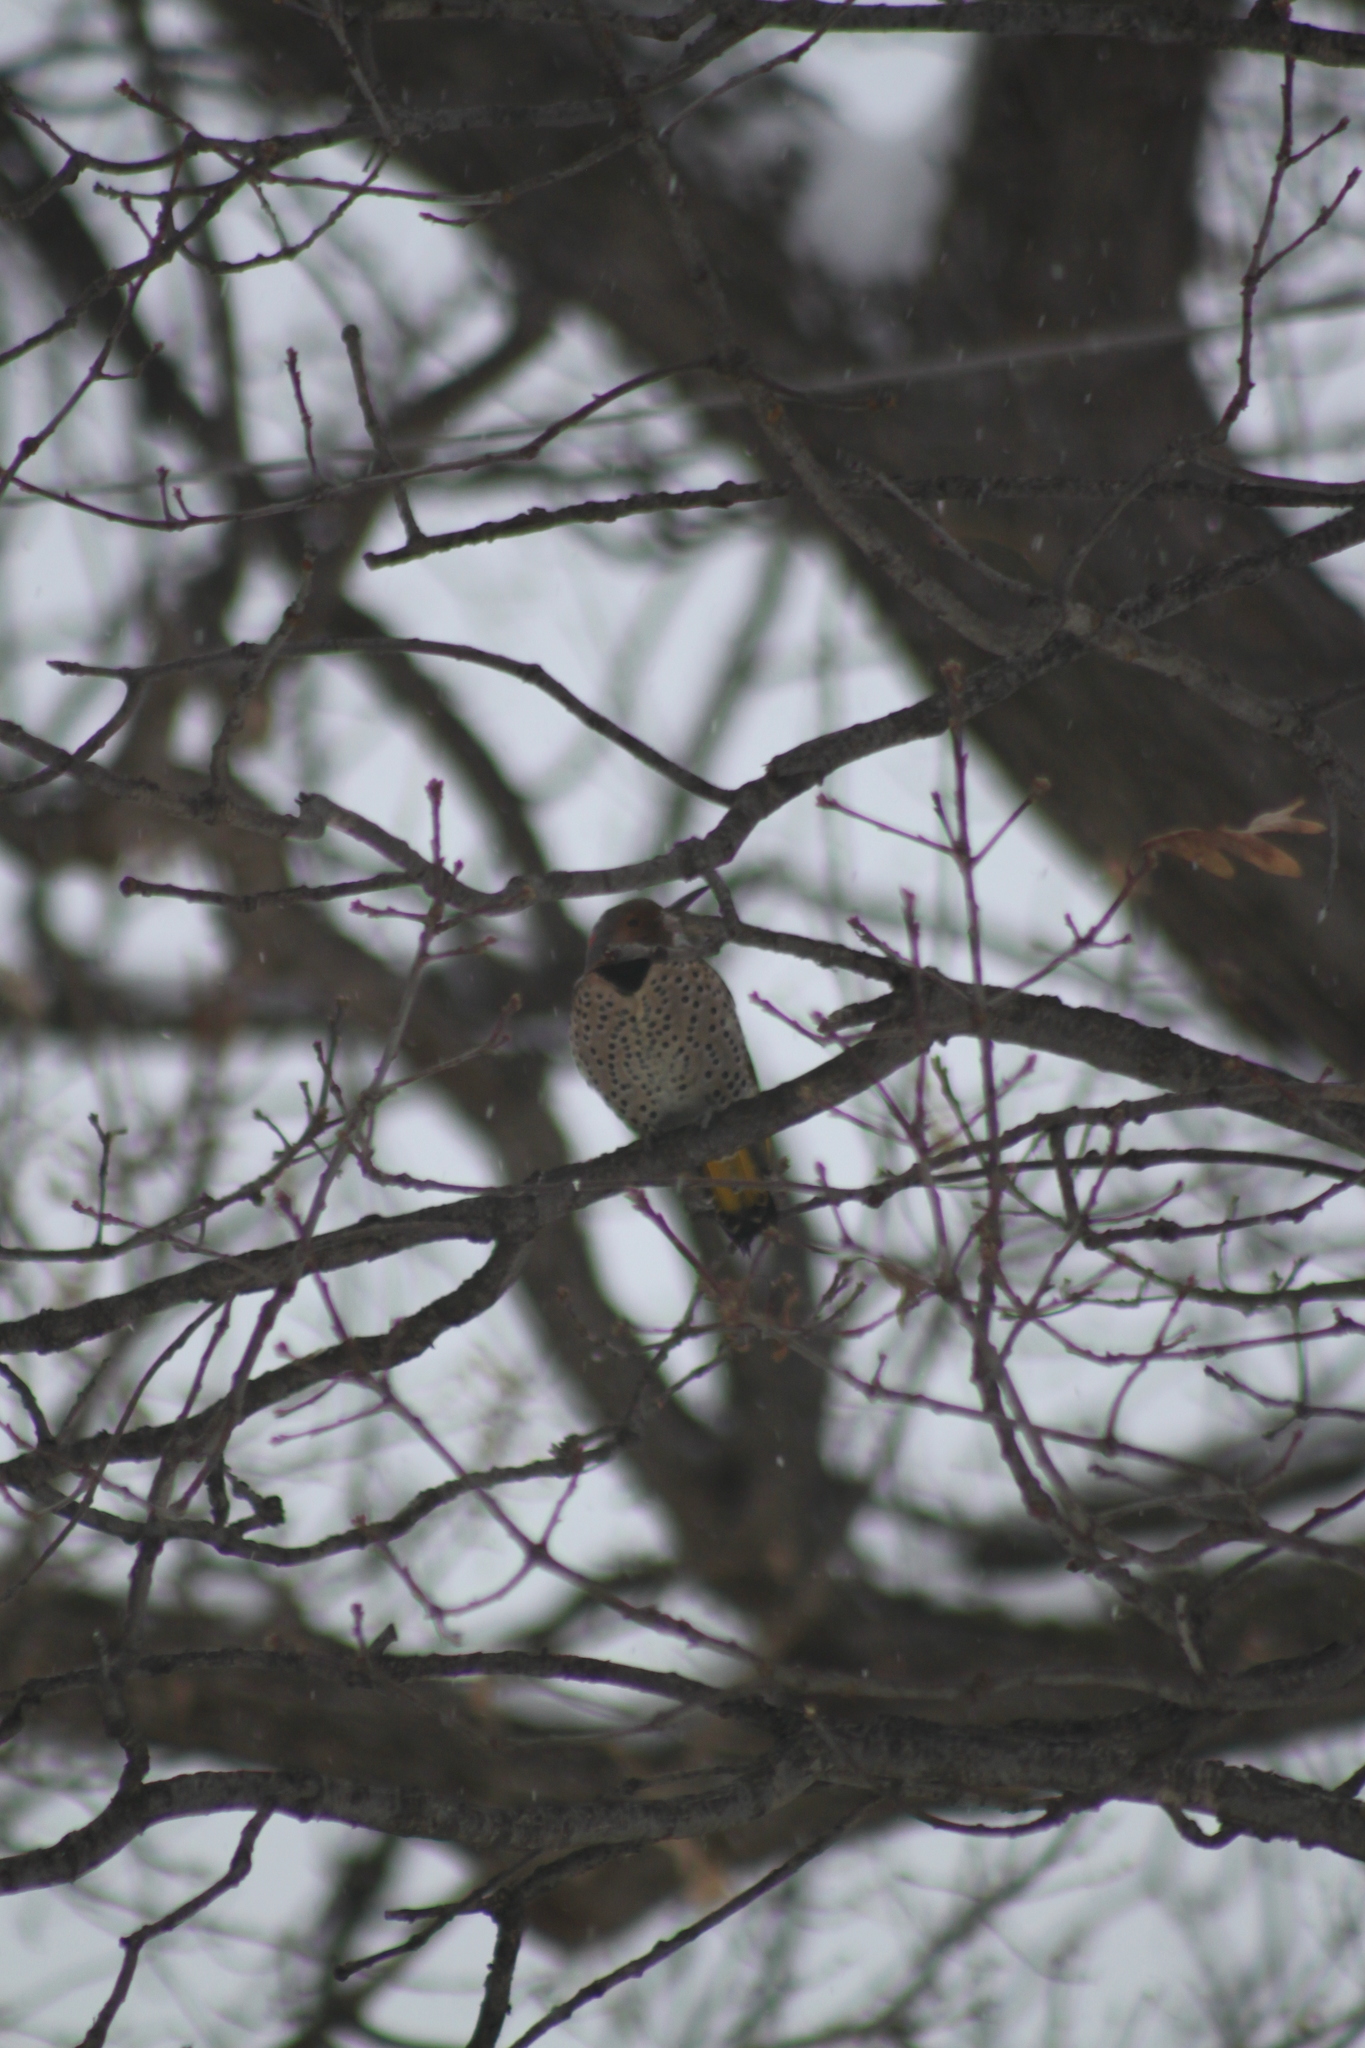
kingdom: Animalia
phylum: Chordata
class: Aves
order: Piciformes
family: Picidae
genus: Colaptes
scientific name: Colaptes auratus
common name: Northern flicker
